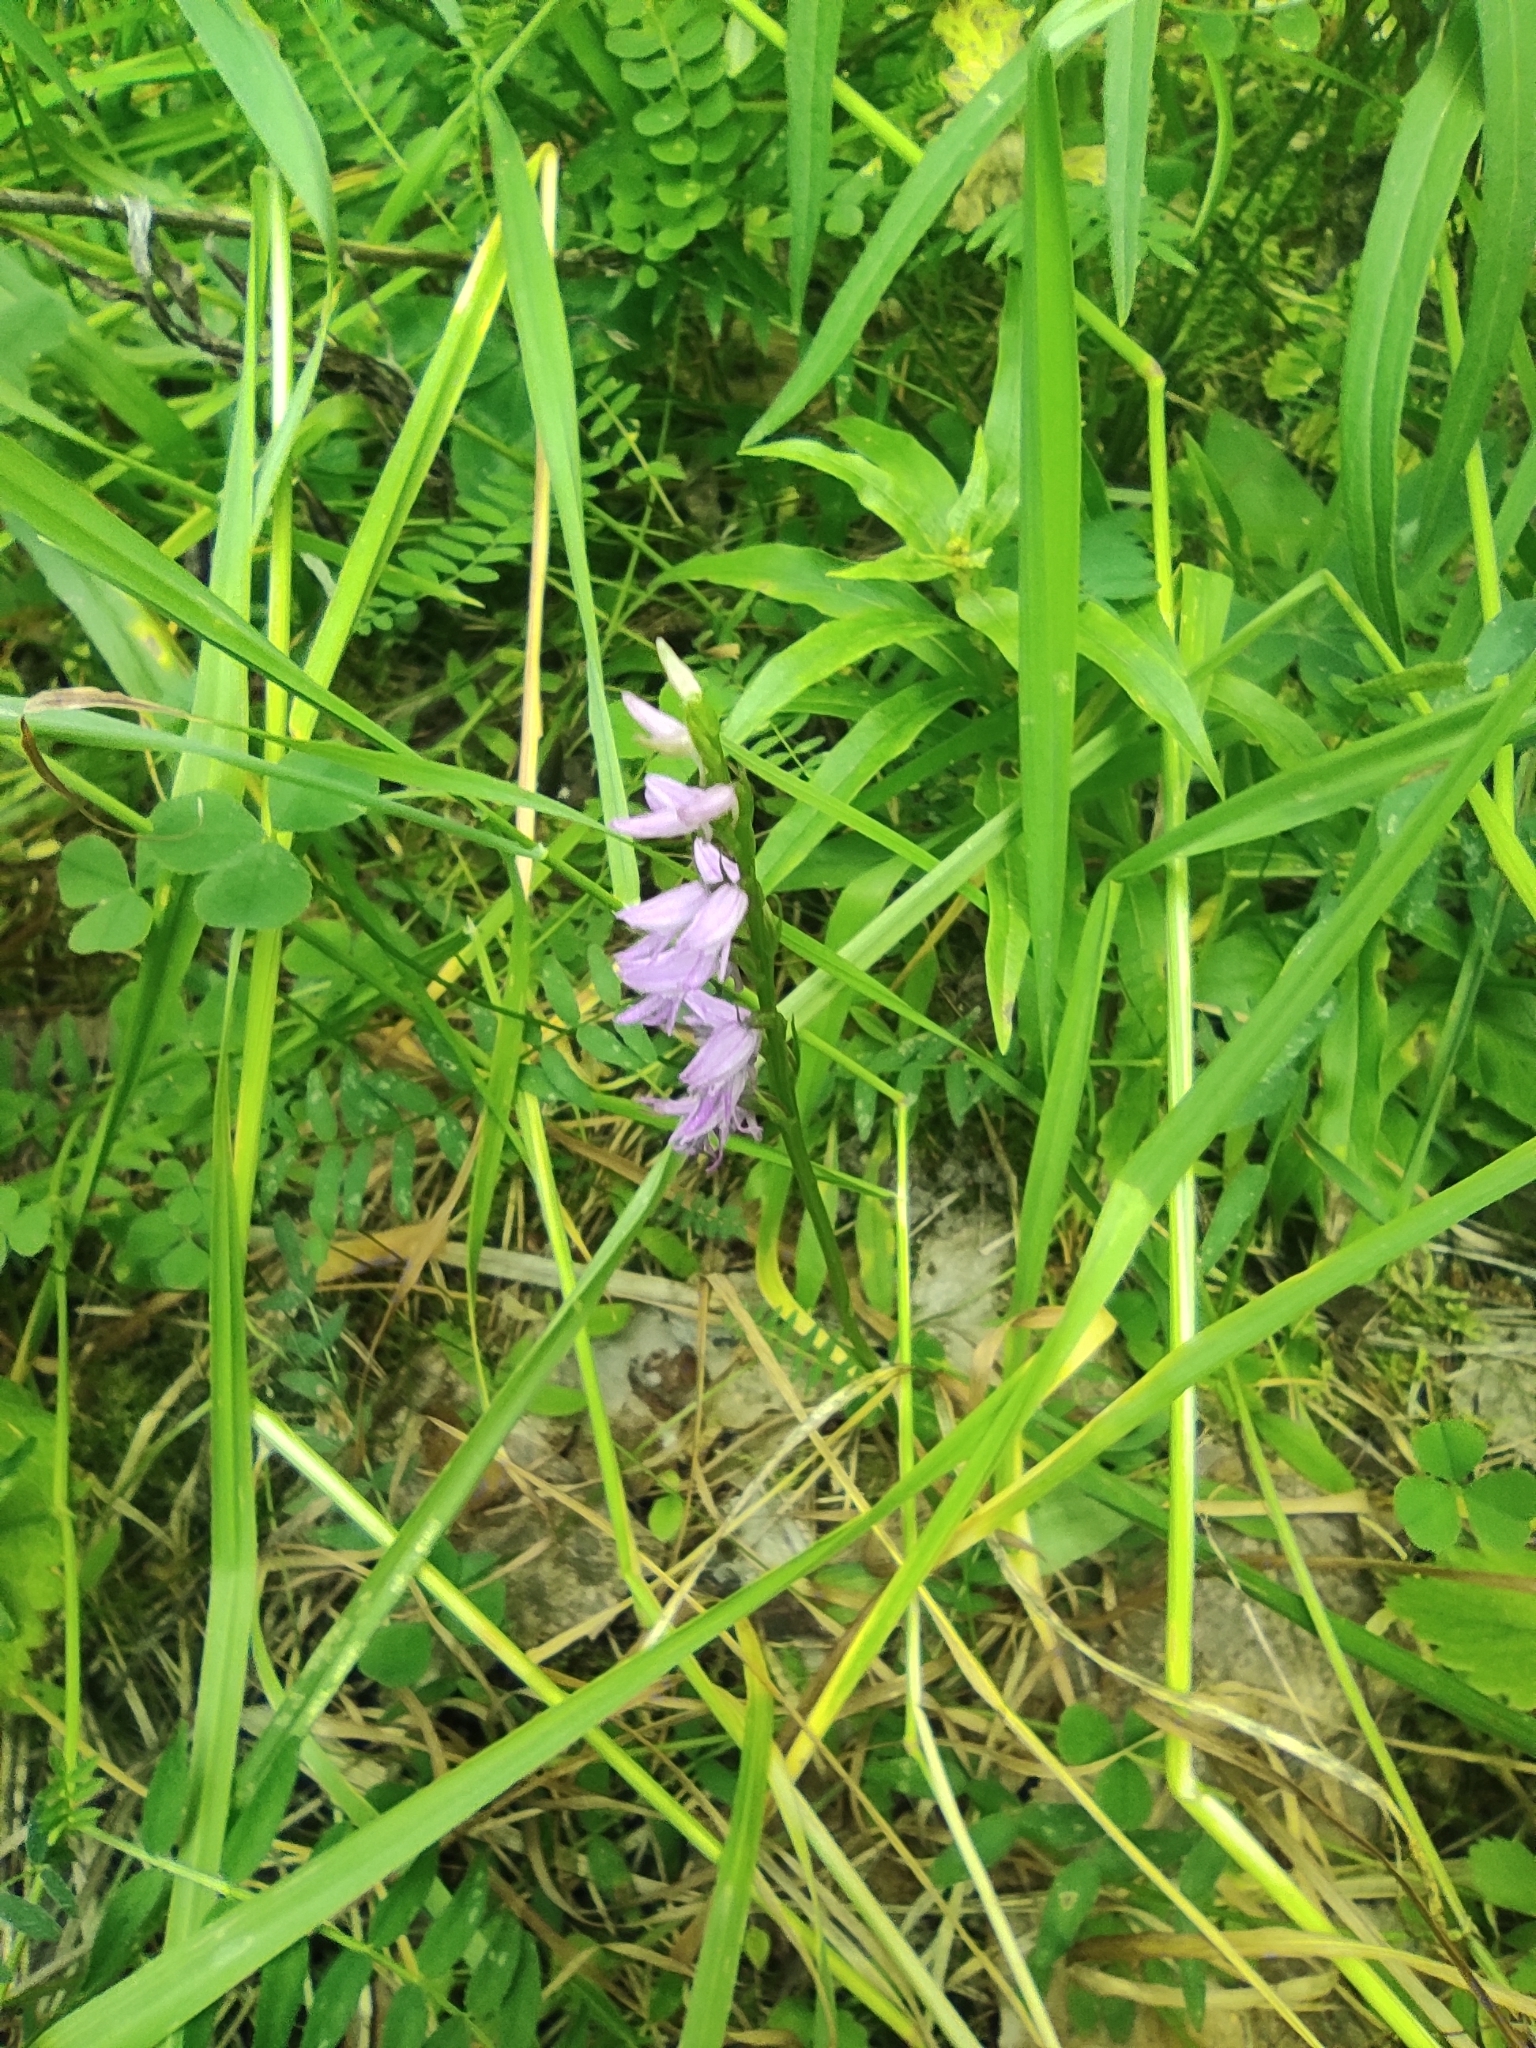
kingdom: Plantae
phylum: Tracheophyta
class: Liliopsida
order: Asparagales
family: Orchidaceae
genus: Hemipilia
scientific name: Hemipilia cucullata
